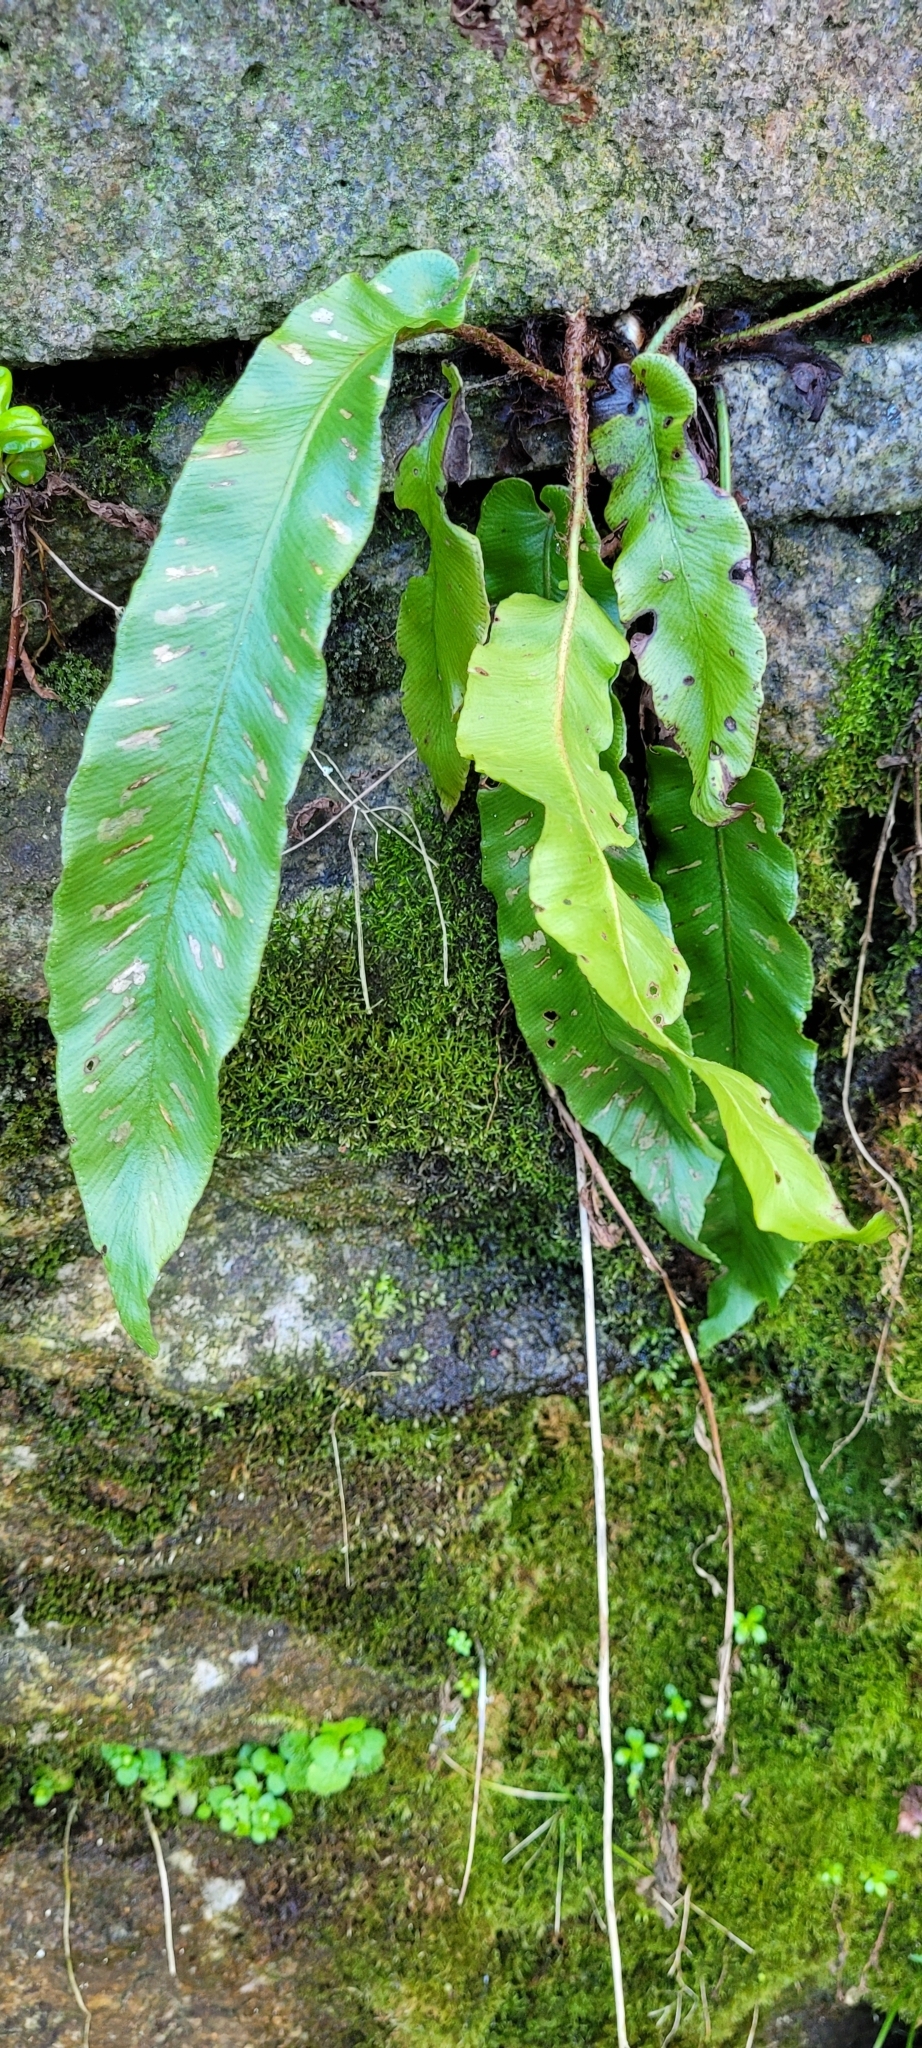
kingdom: Plantae
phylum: Tracheophyta
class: Polypodiopsida
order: Polypodiales
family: Aspleniaceae
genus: Asplenium
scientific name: Asplenium scolopendrium
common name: Hart's-tongue fern
